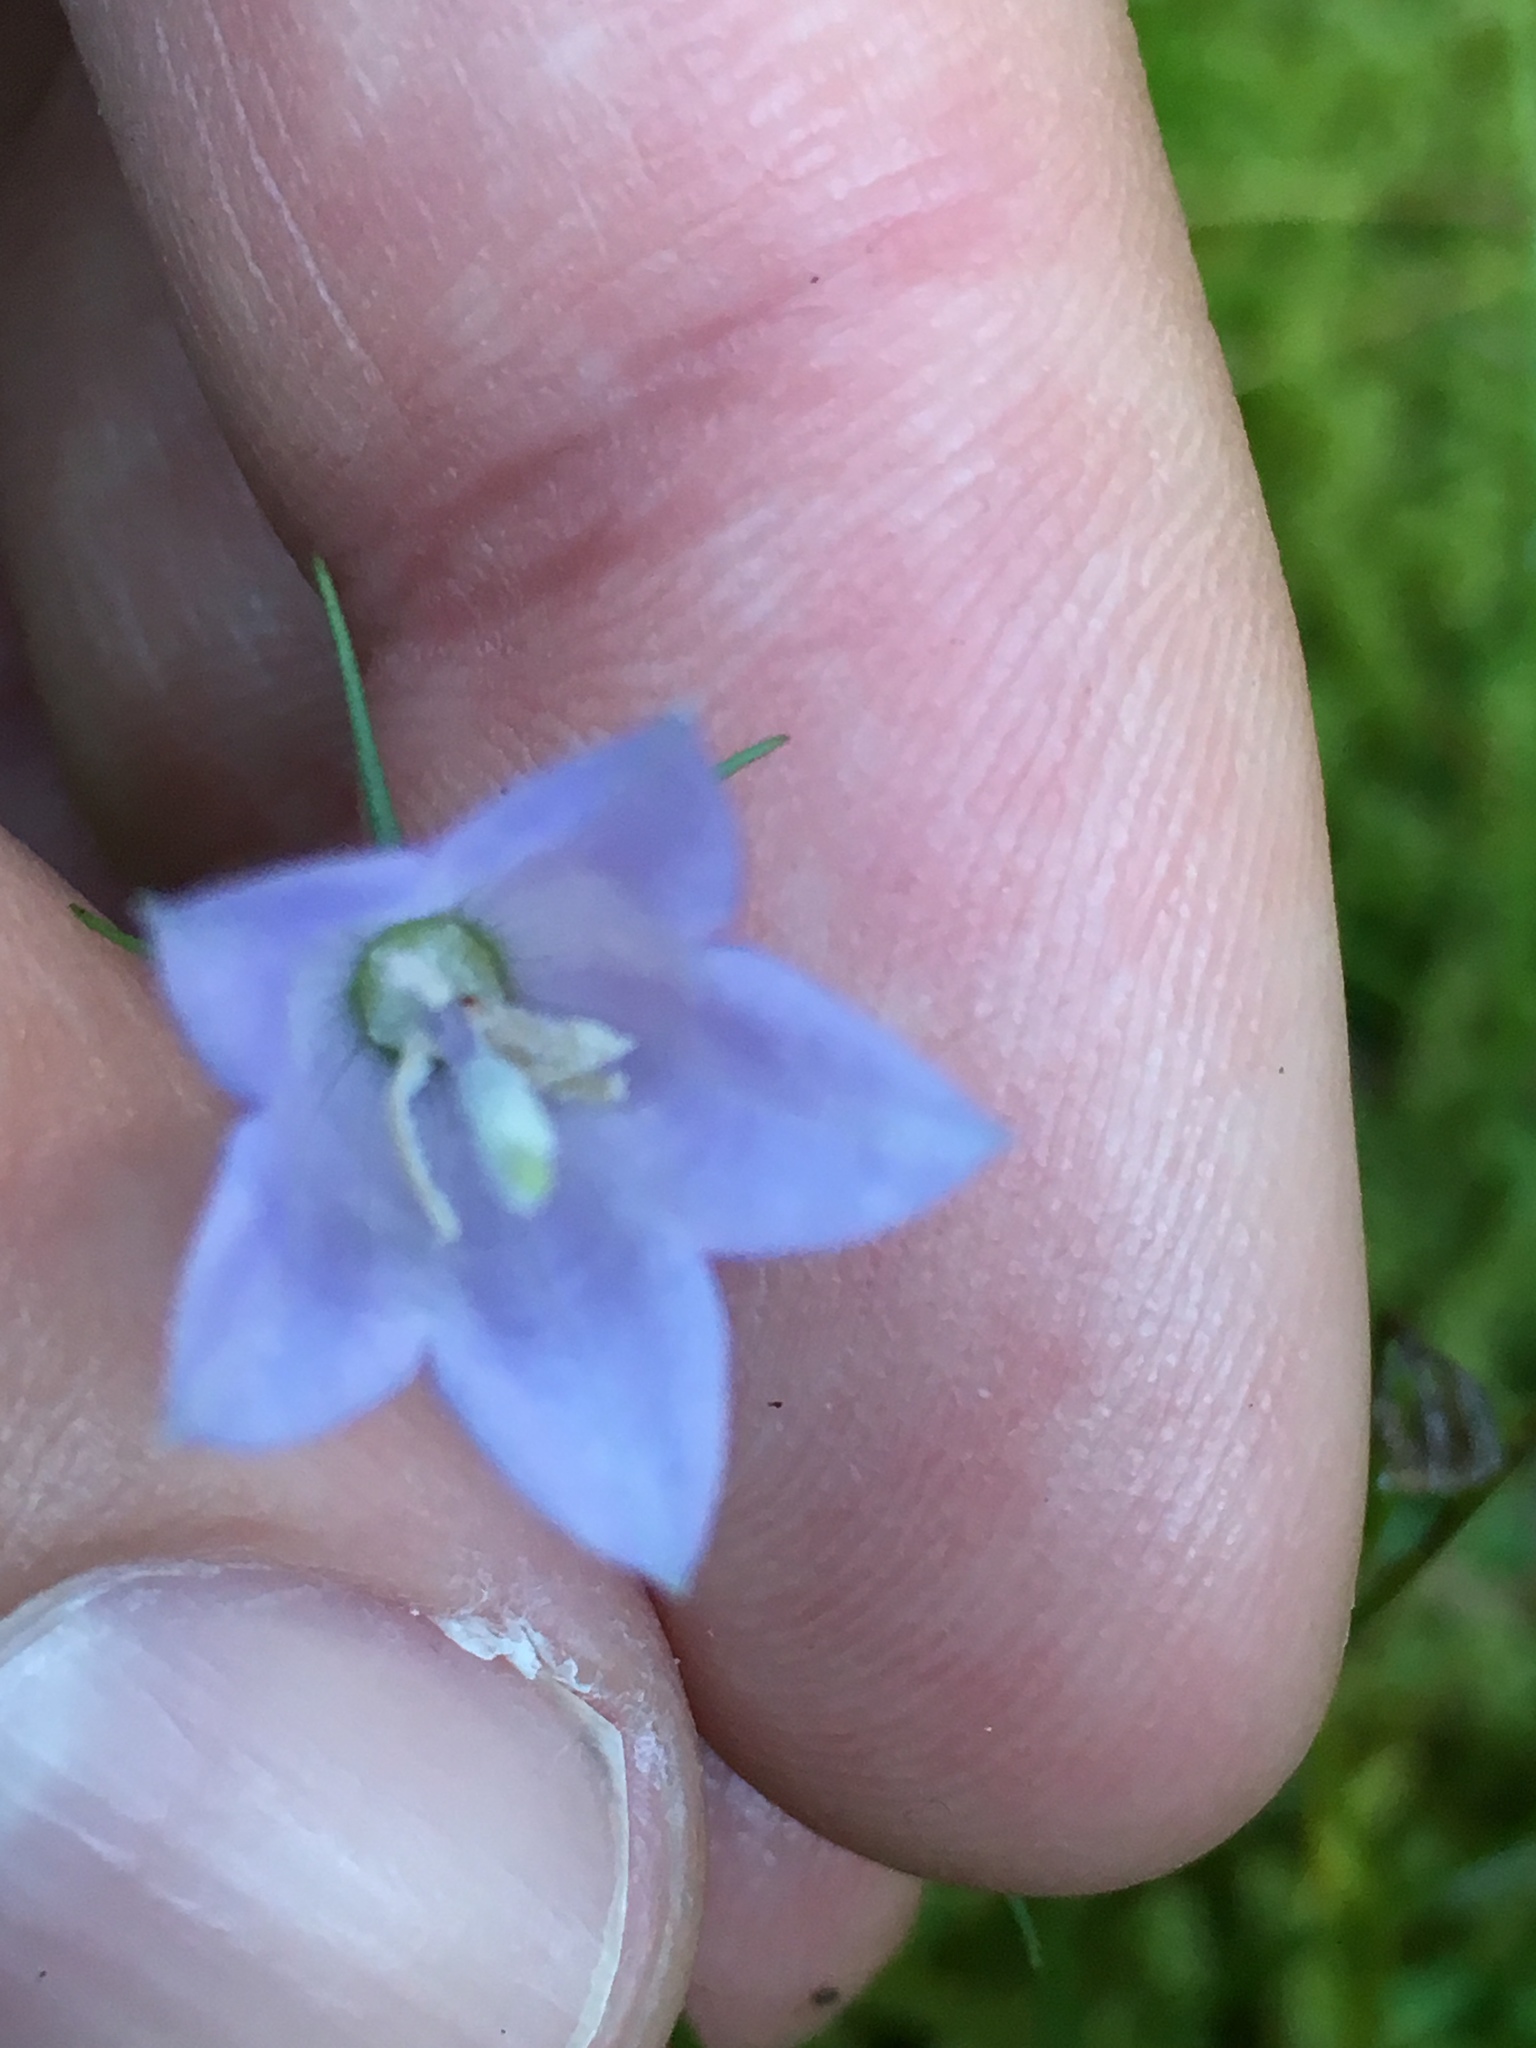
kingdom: Plantae
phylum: Tracheophyta
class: Magnoliopsida
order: Asterales
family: Campanulaceae
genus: Campanula
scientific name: Campanula rotundifolia
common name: Harebell
